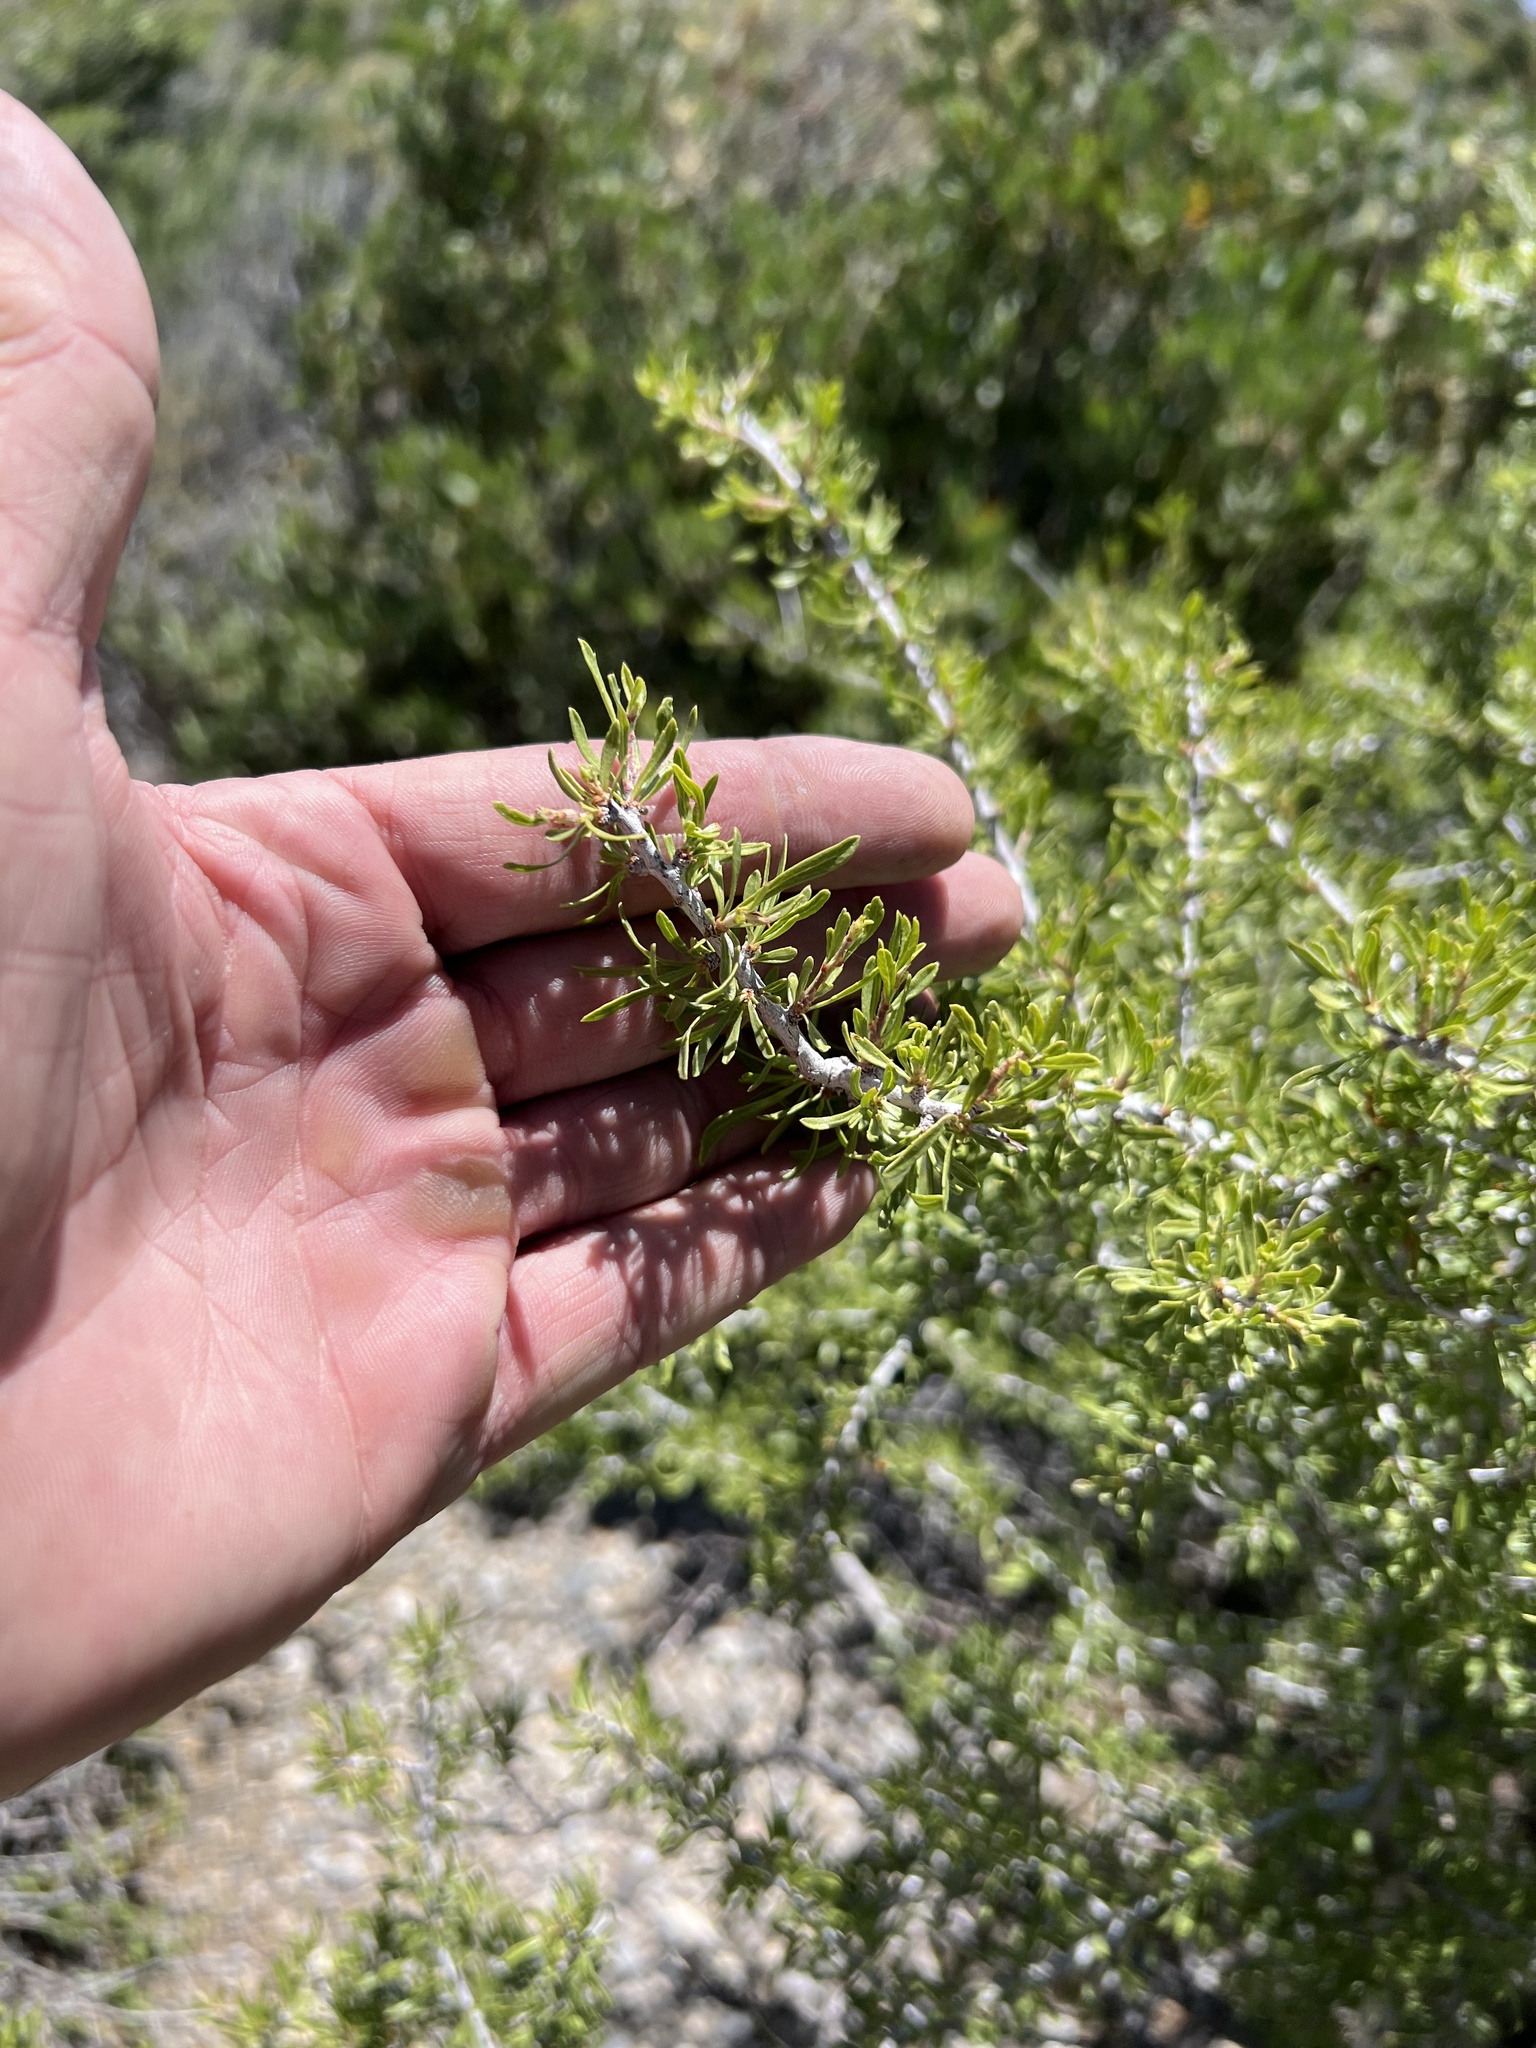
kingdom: Plantae
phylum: Tracheophyta
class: Magnoliopsida
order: Rosales
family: Rosaceae
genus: Prunus
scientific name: Prunus fasciculata
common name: Desert almond
